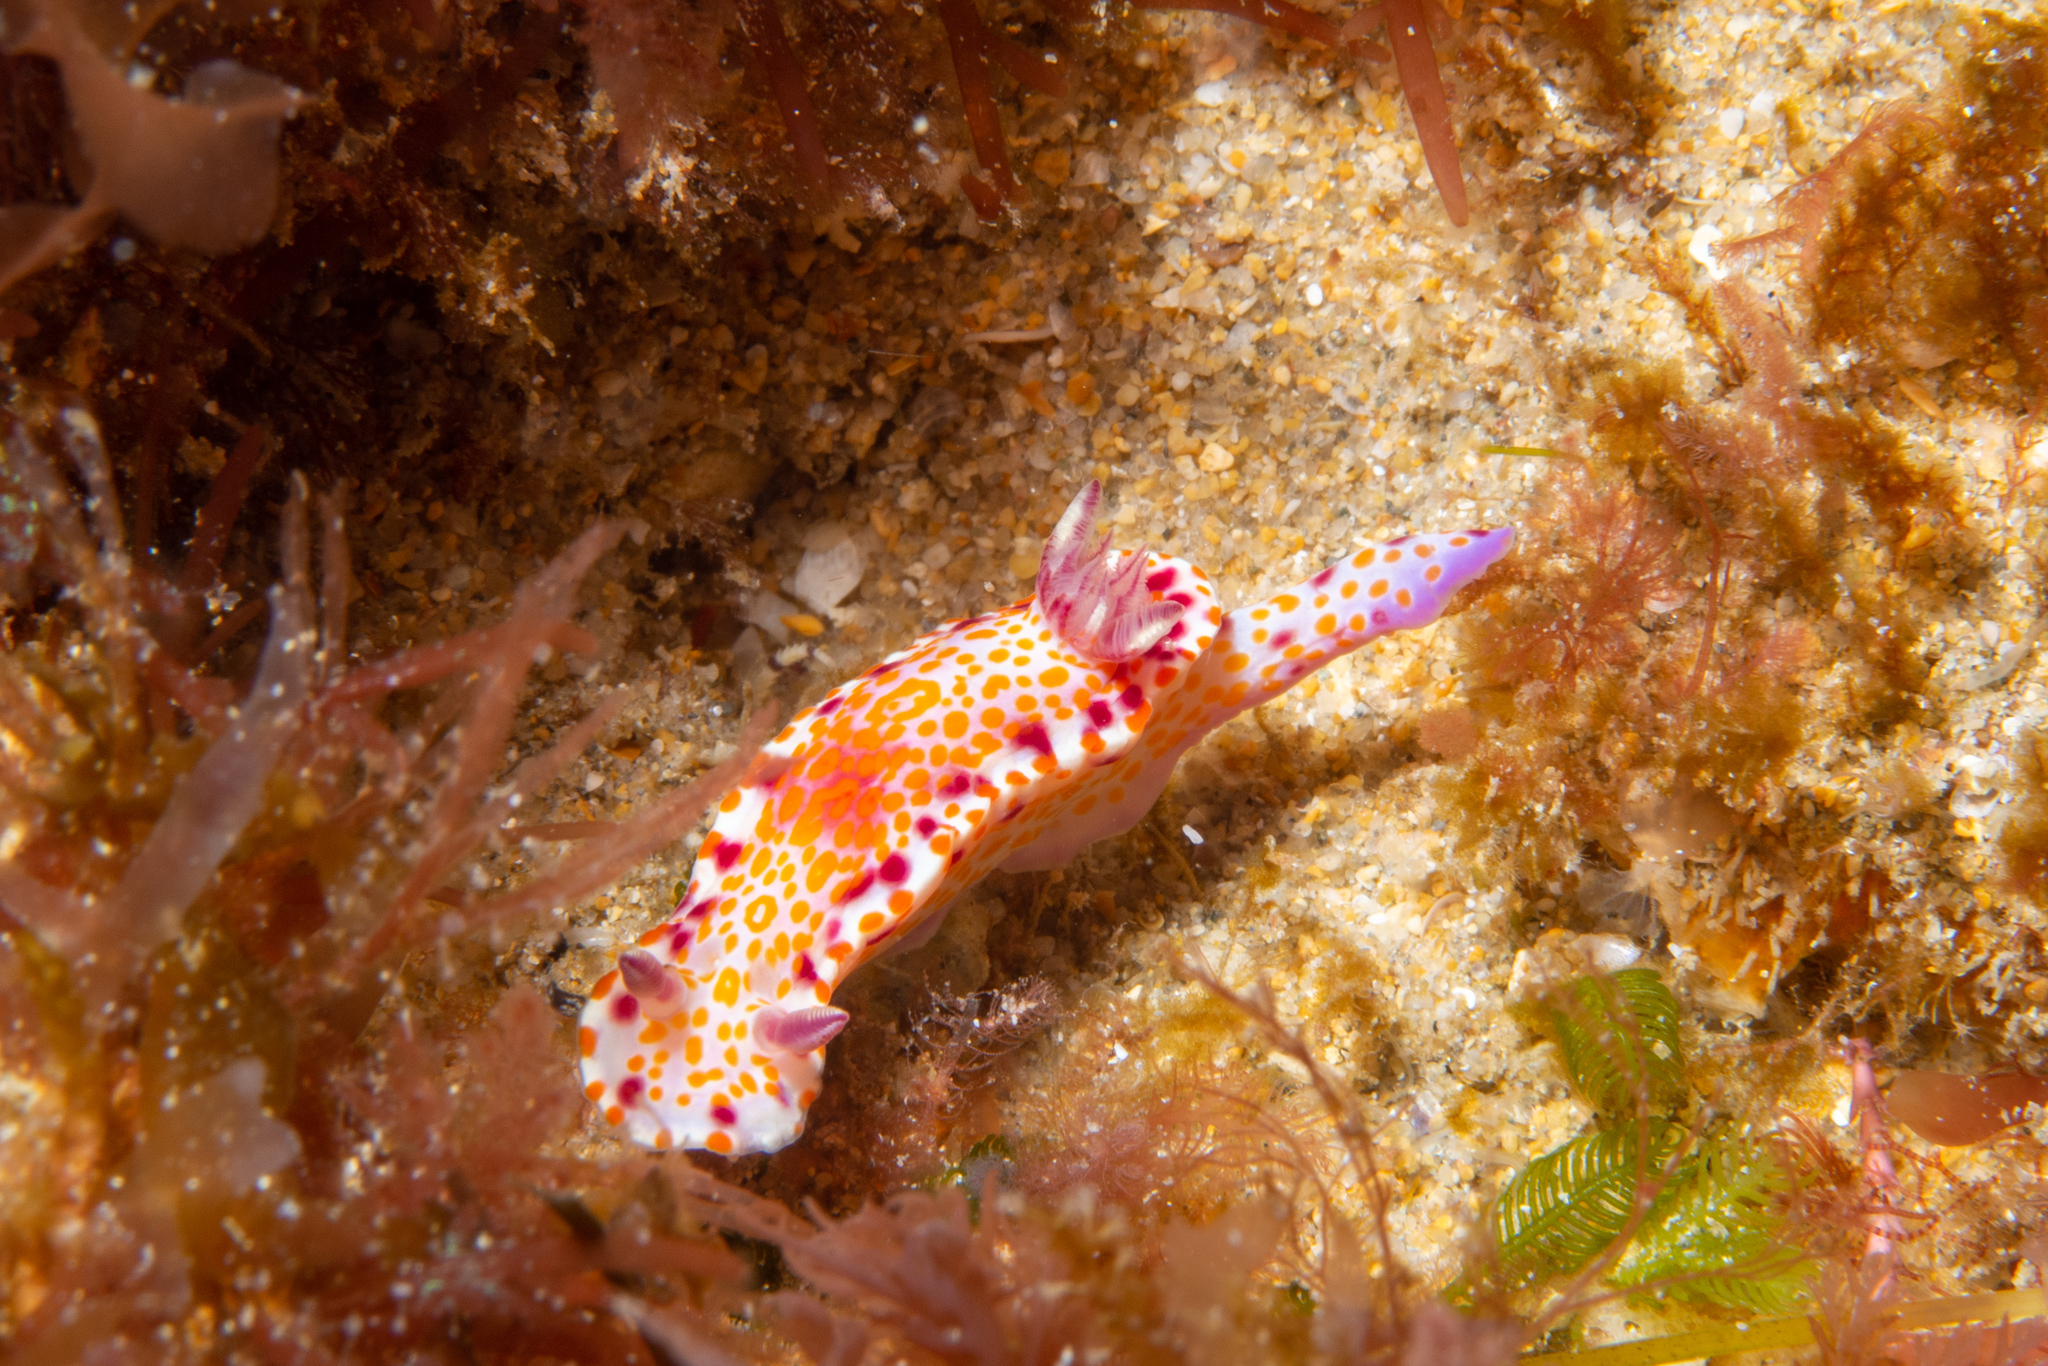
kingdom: Animalia
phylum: Mollusca
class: Gastropoda
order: Nudibranchia
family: Chromodorididae
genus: Ceratosoma
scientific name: Ceratosoma amoenum
